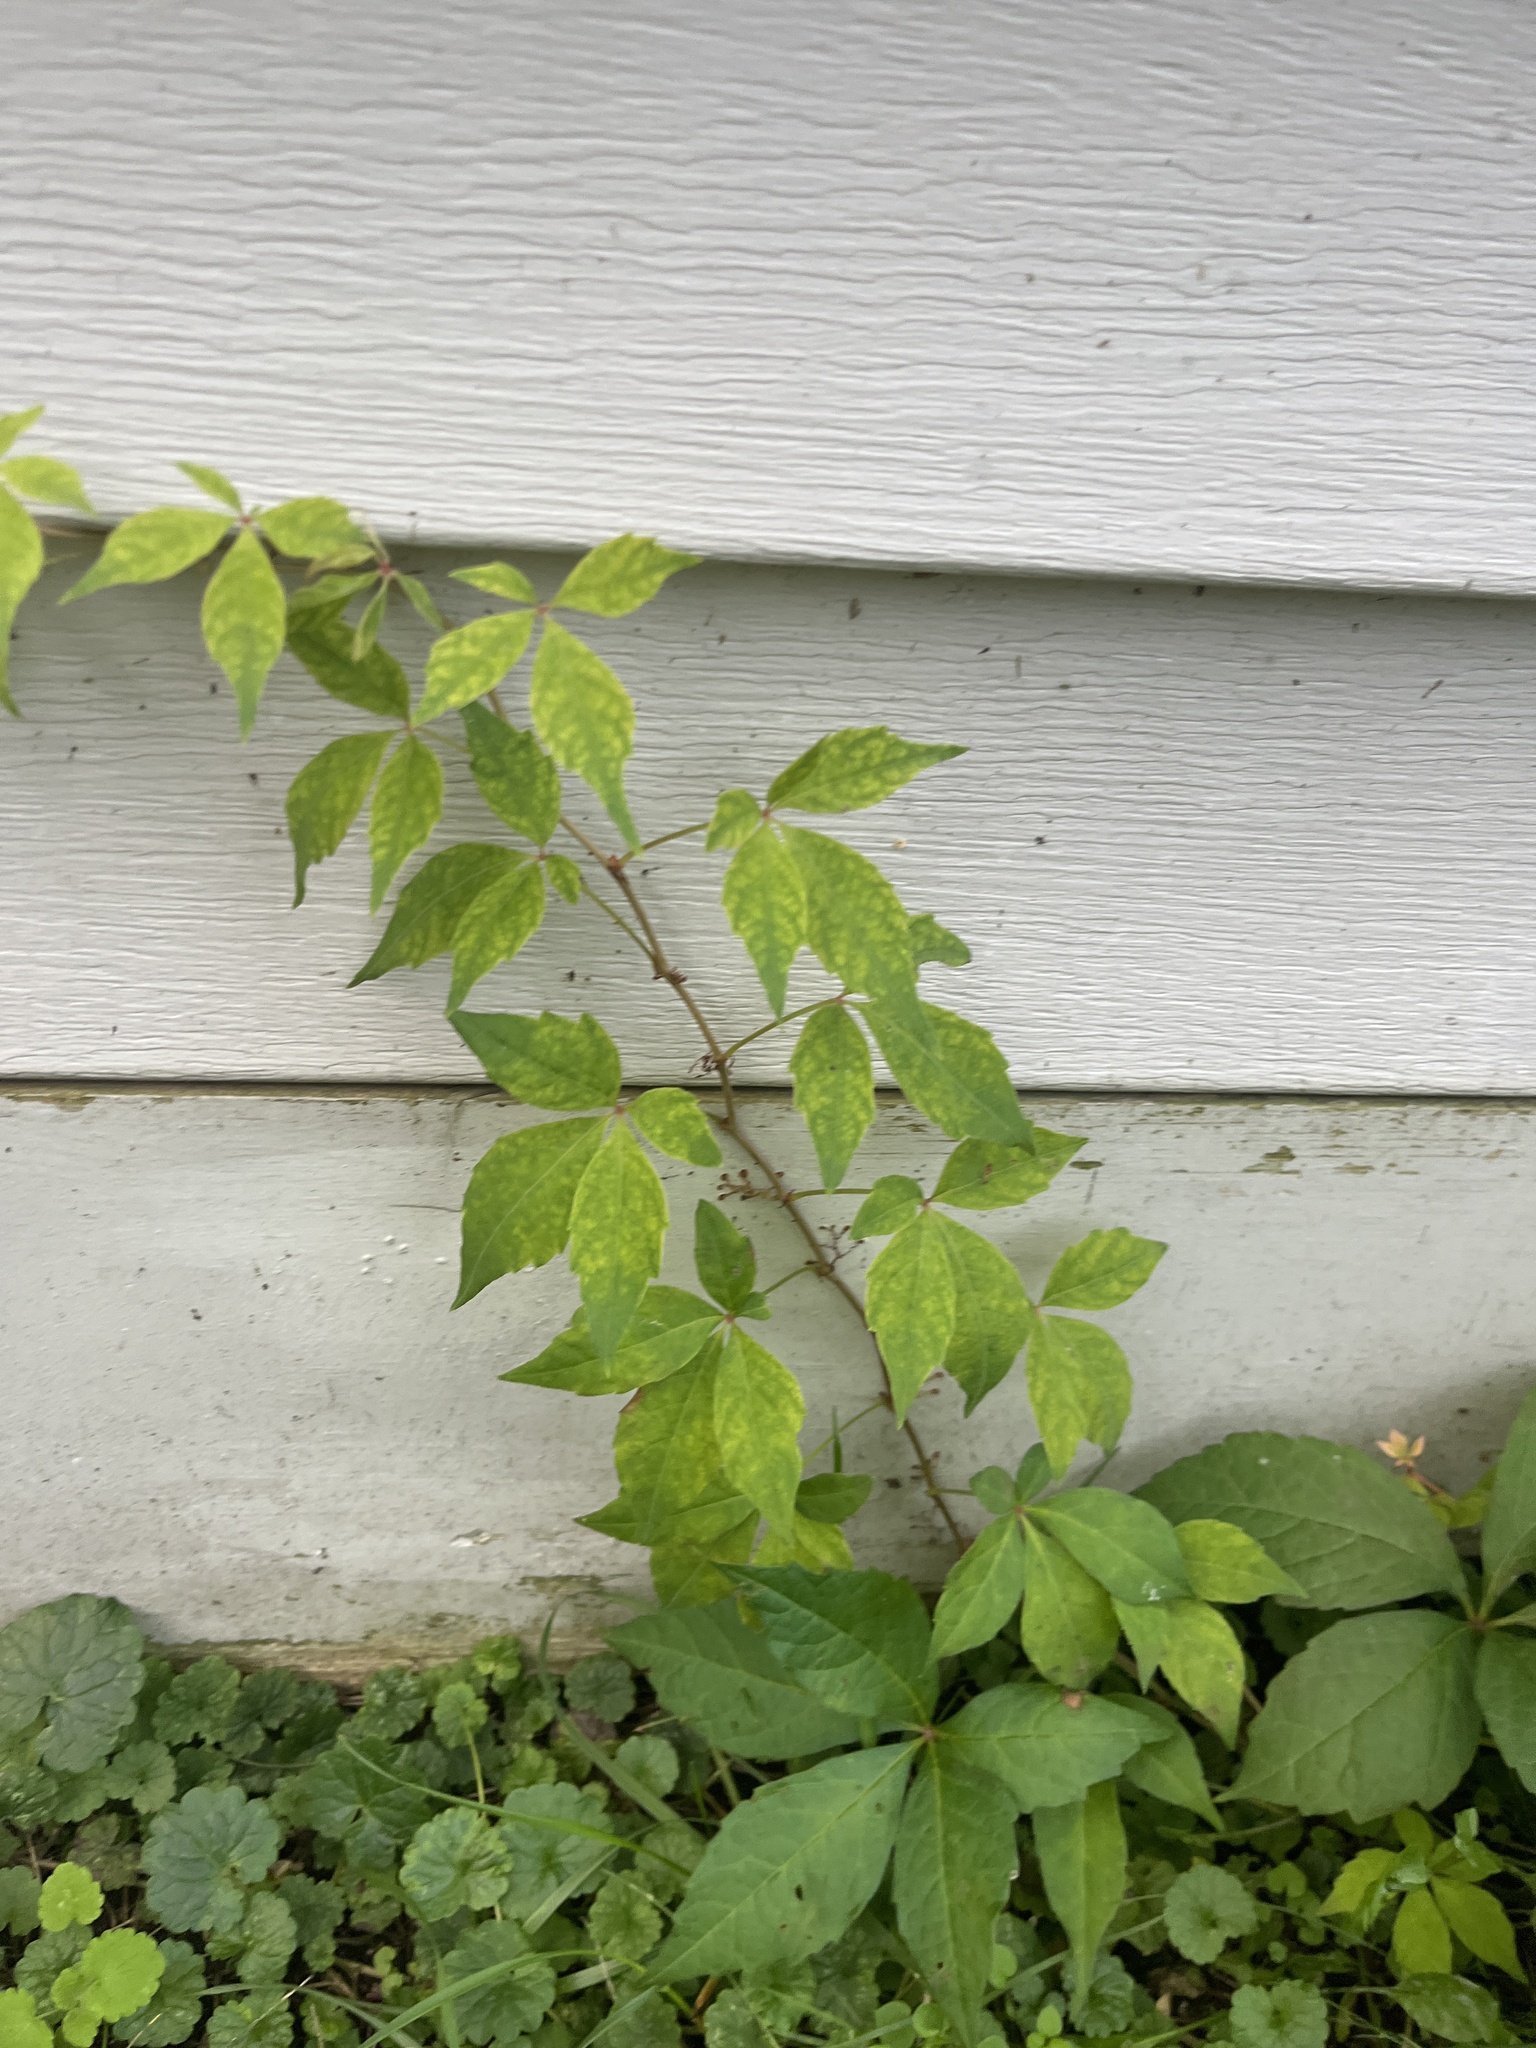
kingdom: Plantae
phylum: Tracheophyta
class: Magnoliopsida
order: Vitales
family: Vitaceae
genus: Parthenocissus
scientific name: Parthenocissus quinquefolia
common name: Virginia-creeper
